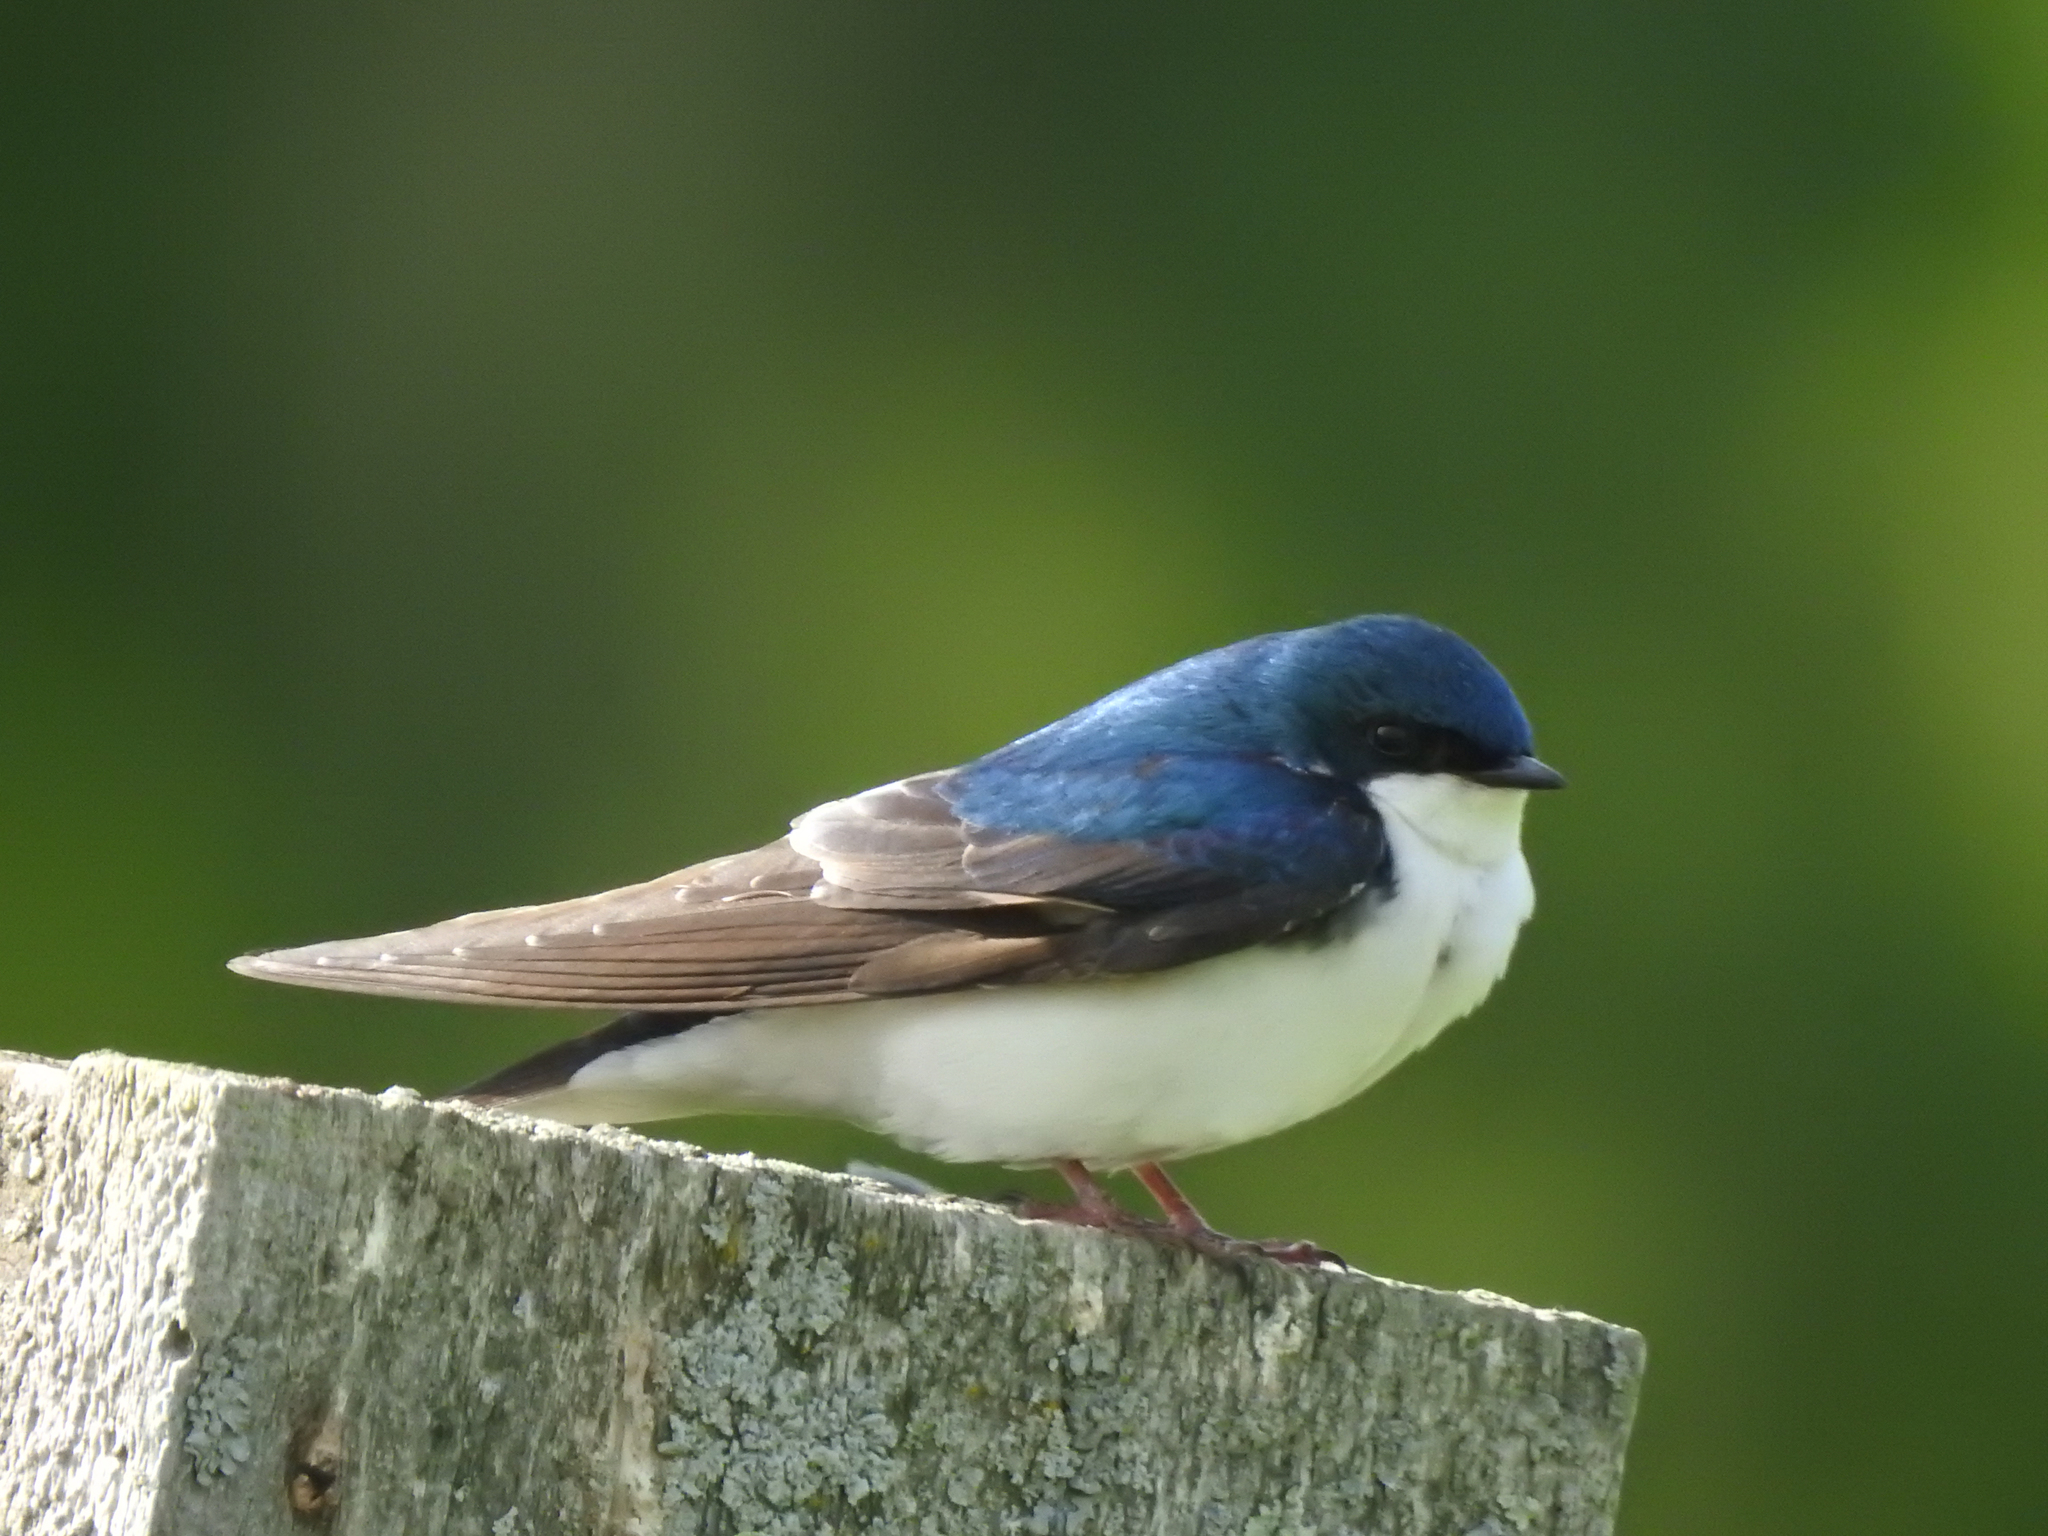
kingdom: Animalia
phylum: Chordata
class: Aves
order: Passeriformes
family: Hirundinidae
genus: Tachycineta
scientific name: Tachycineta bicolor
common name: Tree swallow
